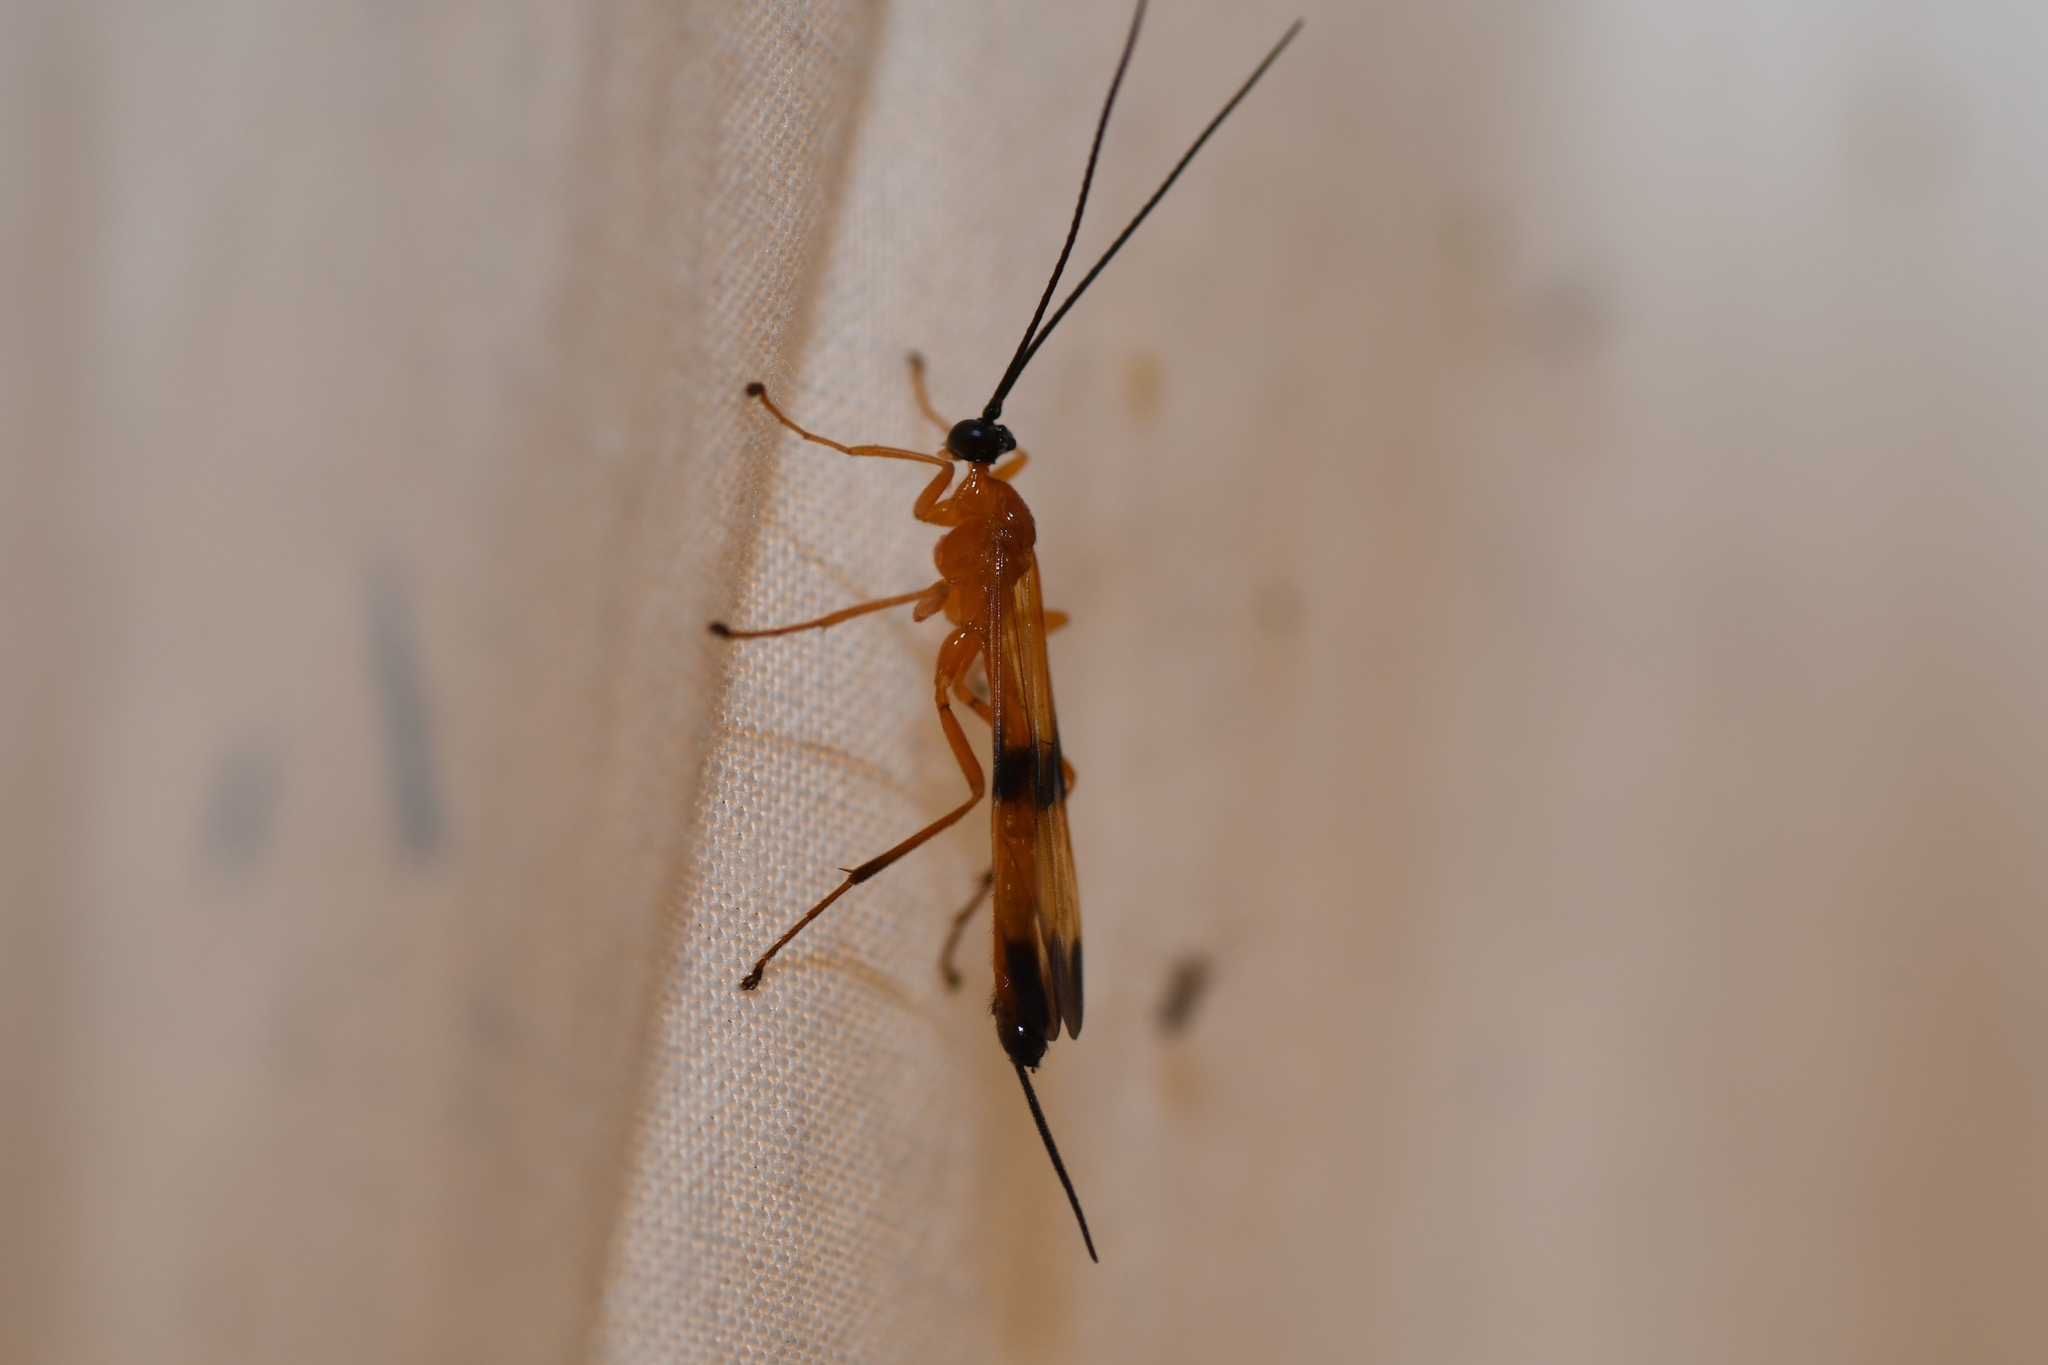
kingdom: Animalia
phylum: Arthropoda
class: Insecta
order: Hymenoptera
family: Ichneumonidae
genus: Acrotaphus
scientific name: Acrotaphus wiltii
